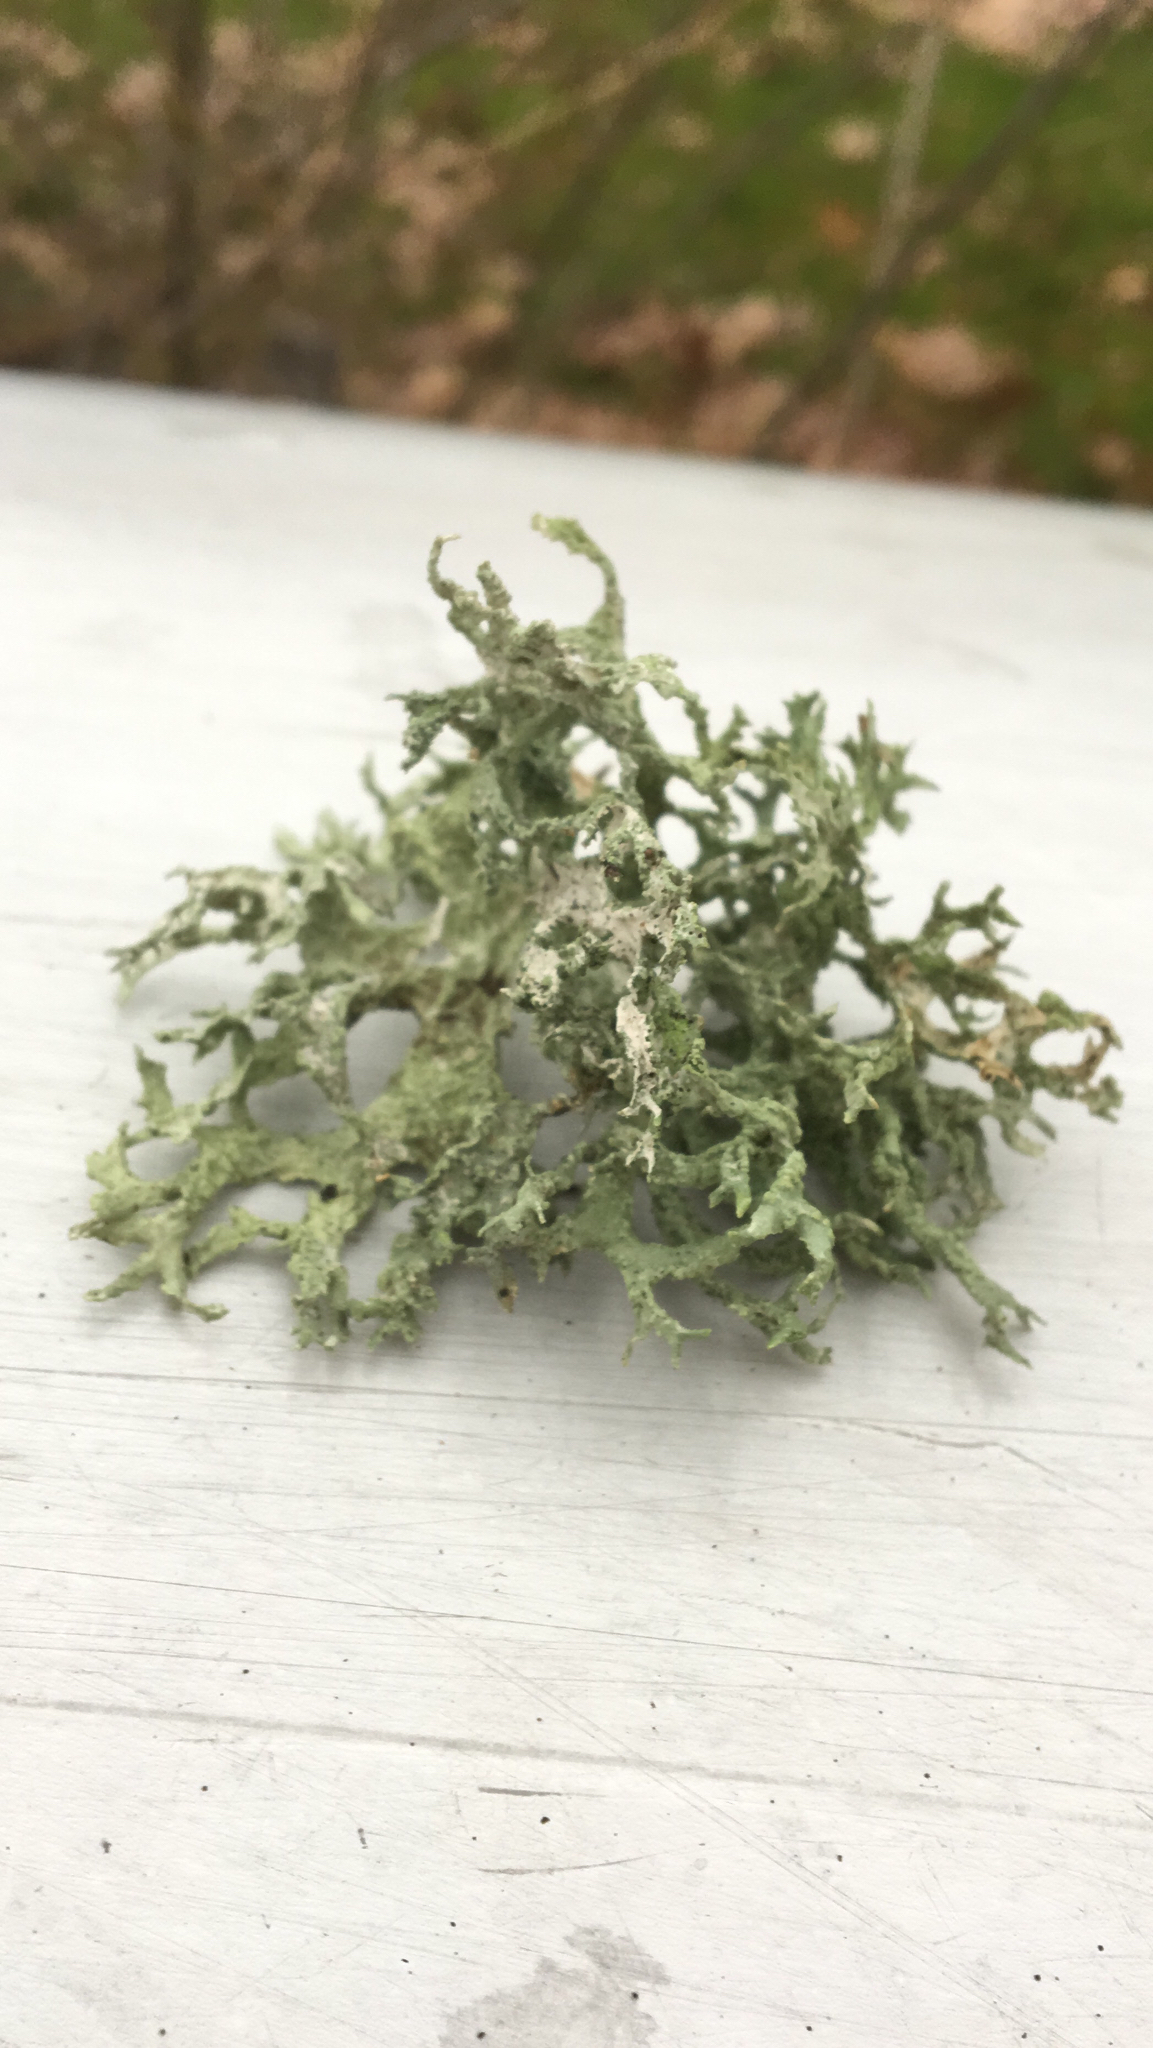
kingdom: Fungi
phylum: Ascomycota
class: Lecanoromycetes
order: Lecanorales
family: Parmeliaceae
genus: Evernia
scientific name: Evernia prunastri
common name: Oak moss
